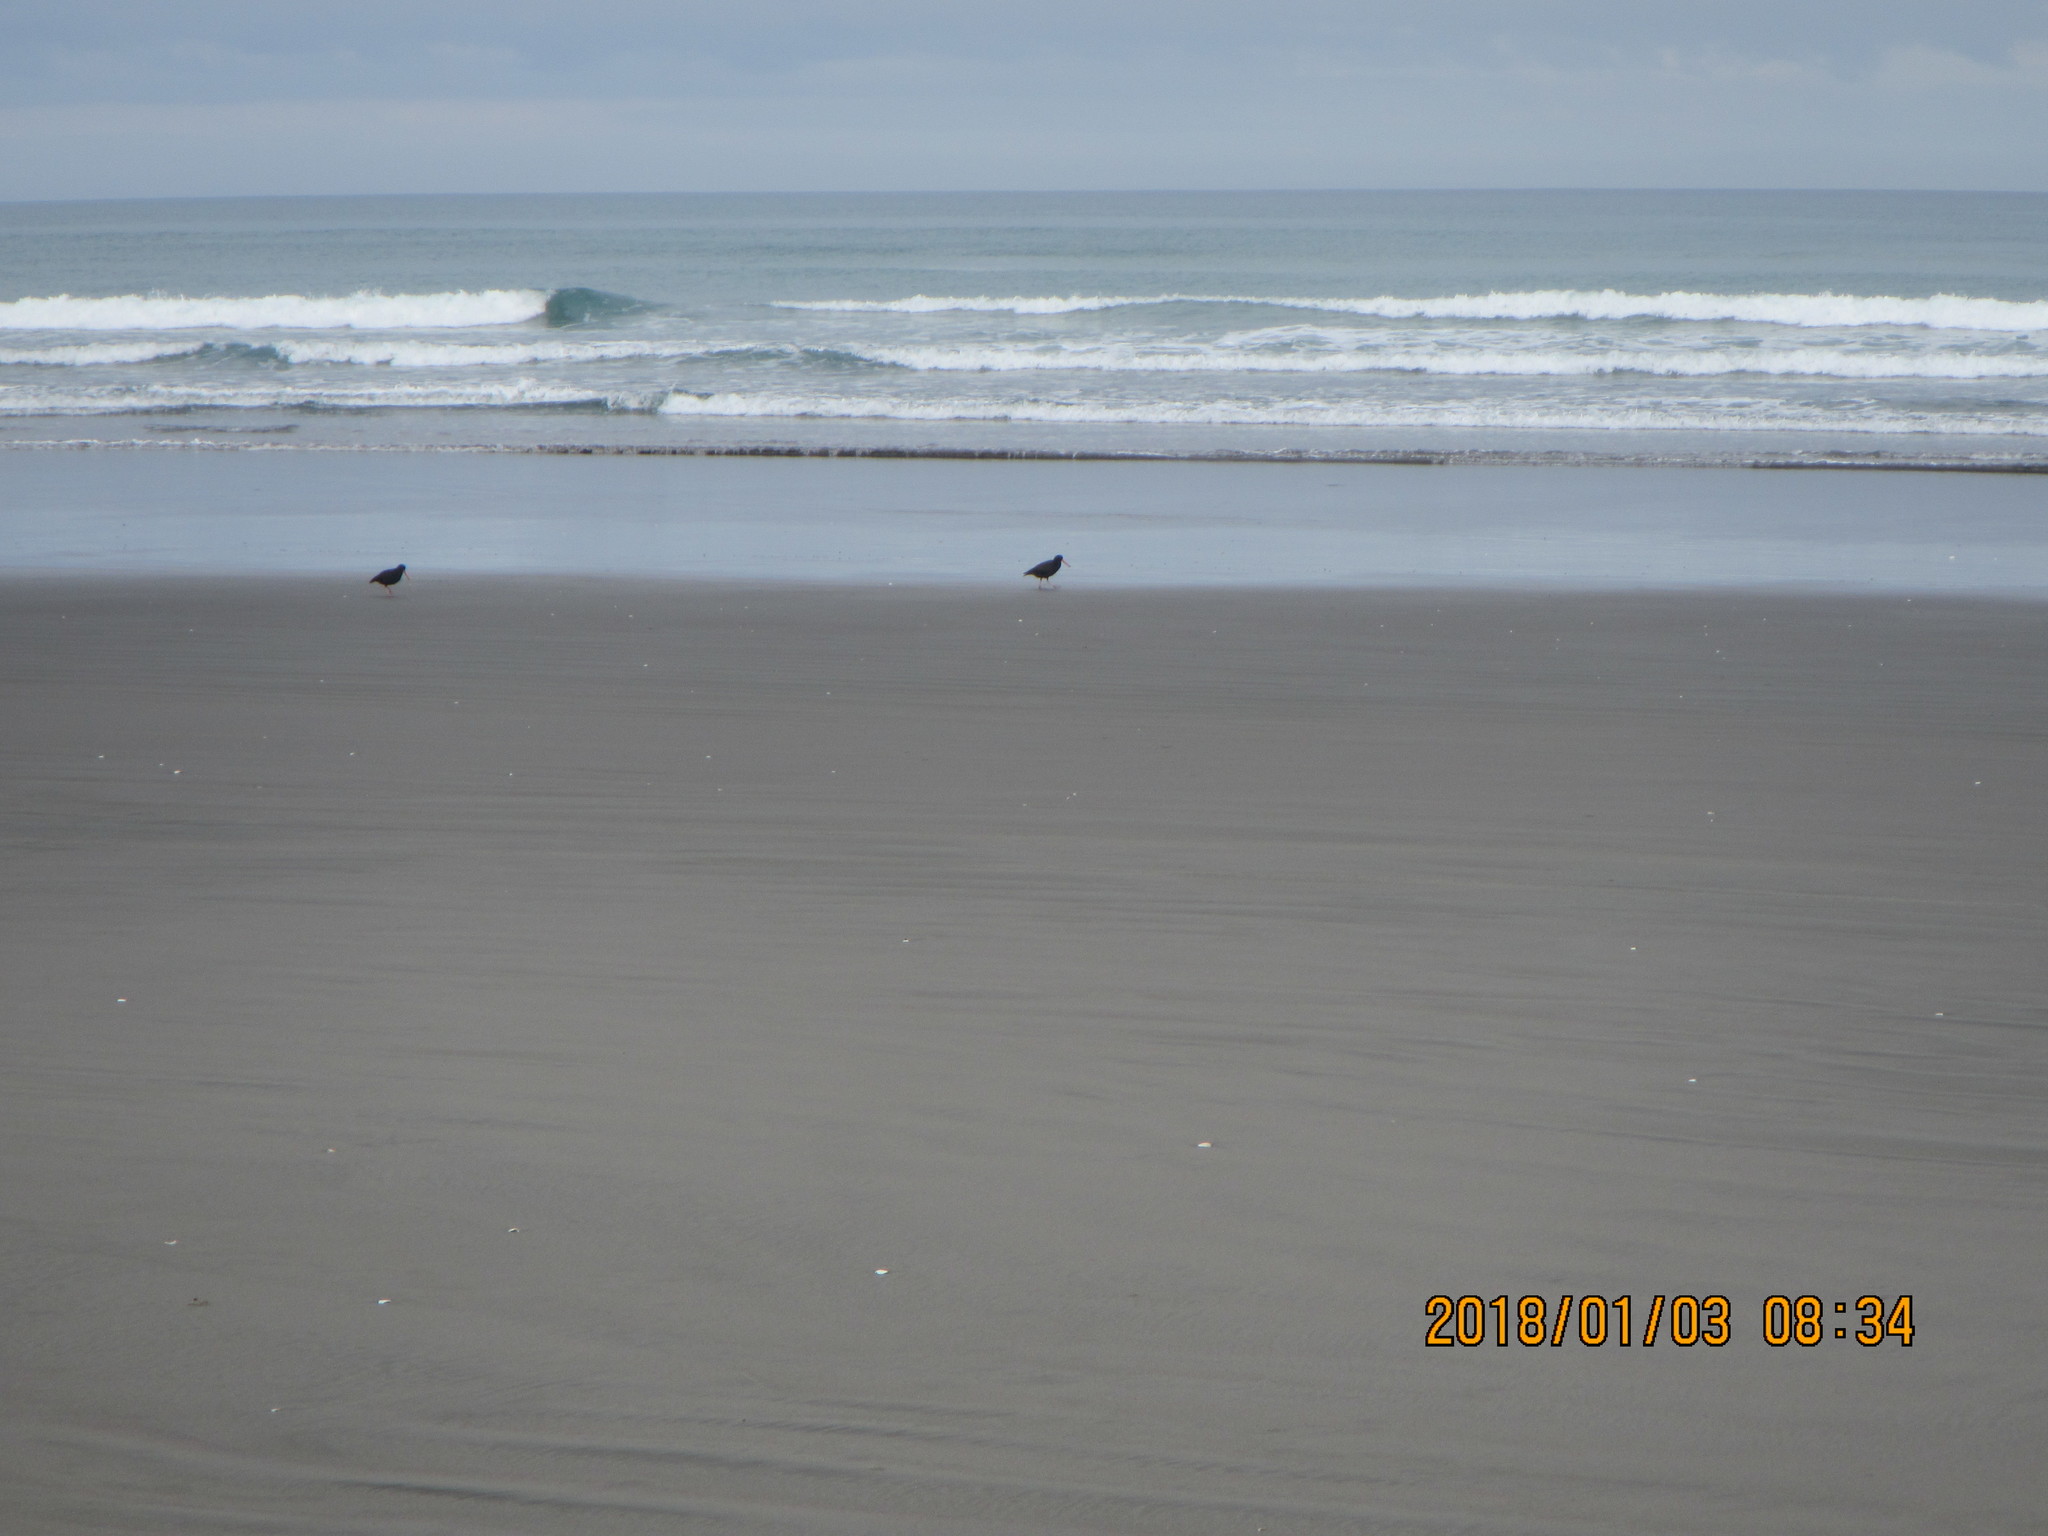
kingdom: Animalia
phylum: Chordata
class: Aves
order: Charadriiformes
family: Haematopodidae
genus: Haematopus
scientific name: Haematopus unicolor
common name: Variable oystercatcher
